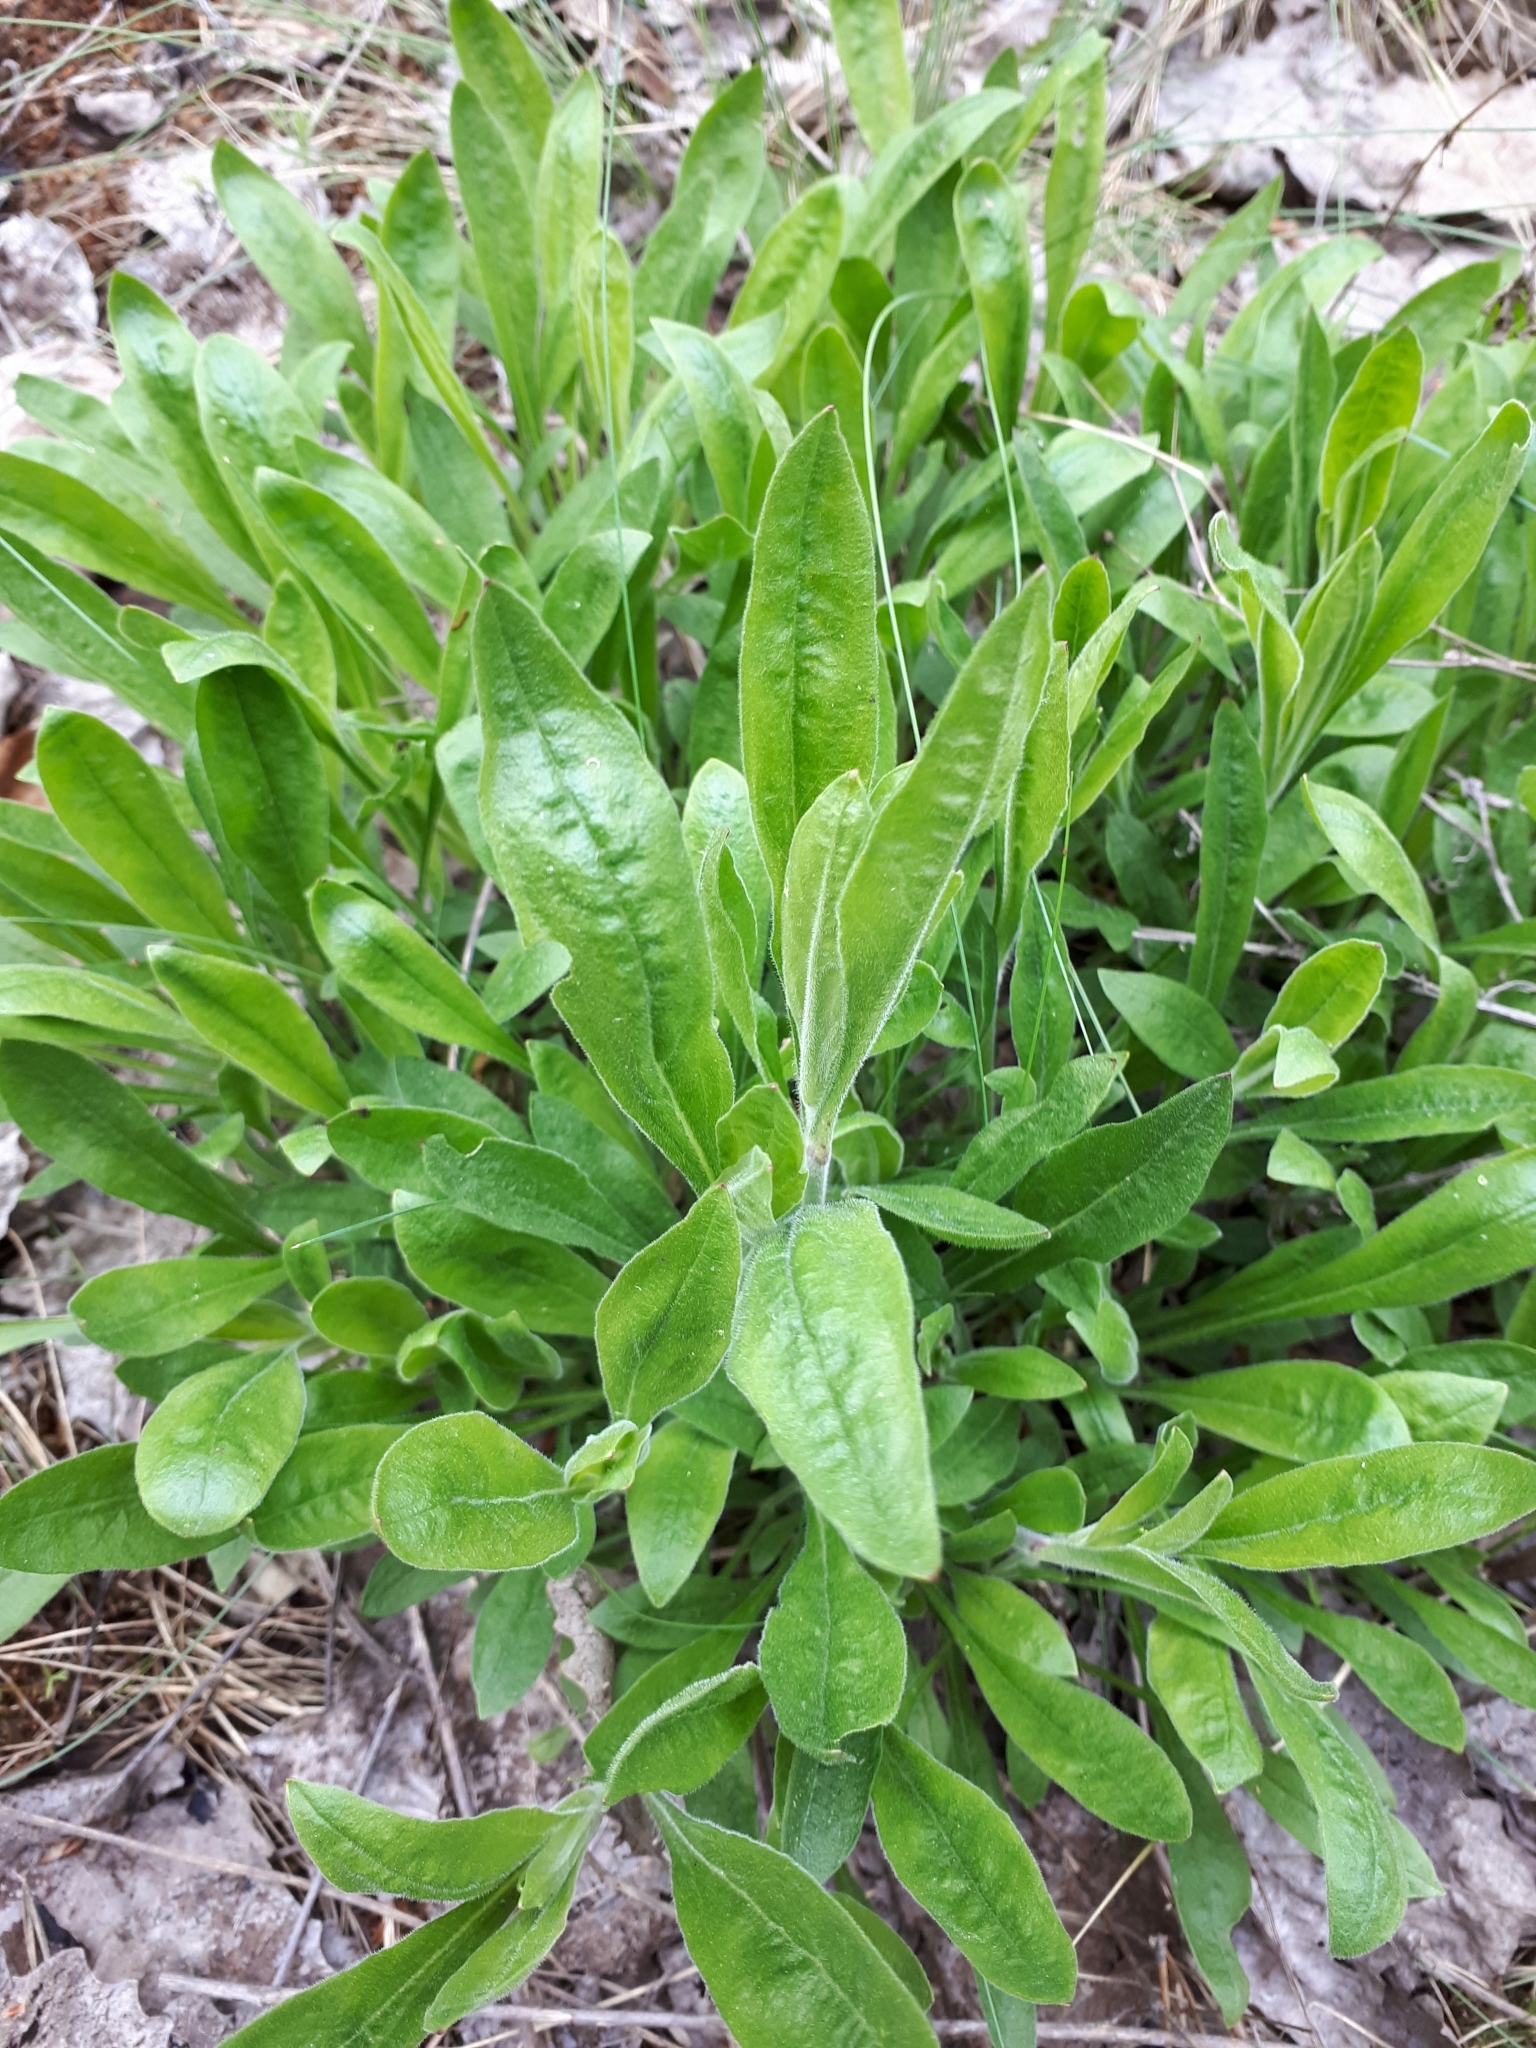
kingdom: Plantae
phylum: Tracheophyta
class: Magnoliopsida
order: Caryophyllales
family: Caryophyllaceae
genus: Silene
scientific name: Silene nutans
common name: Nottingham catchfly
